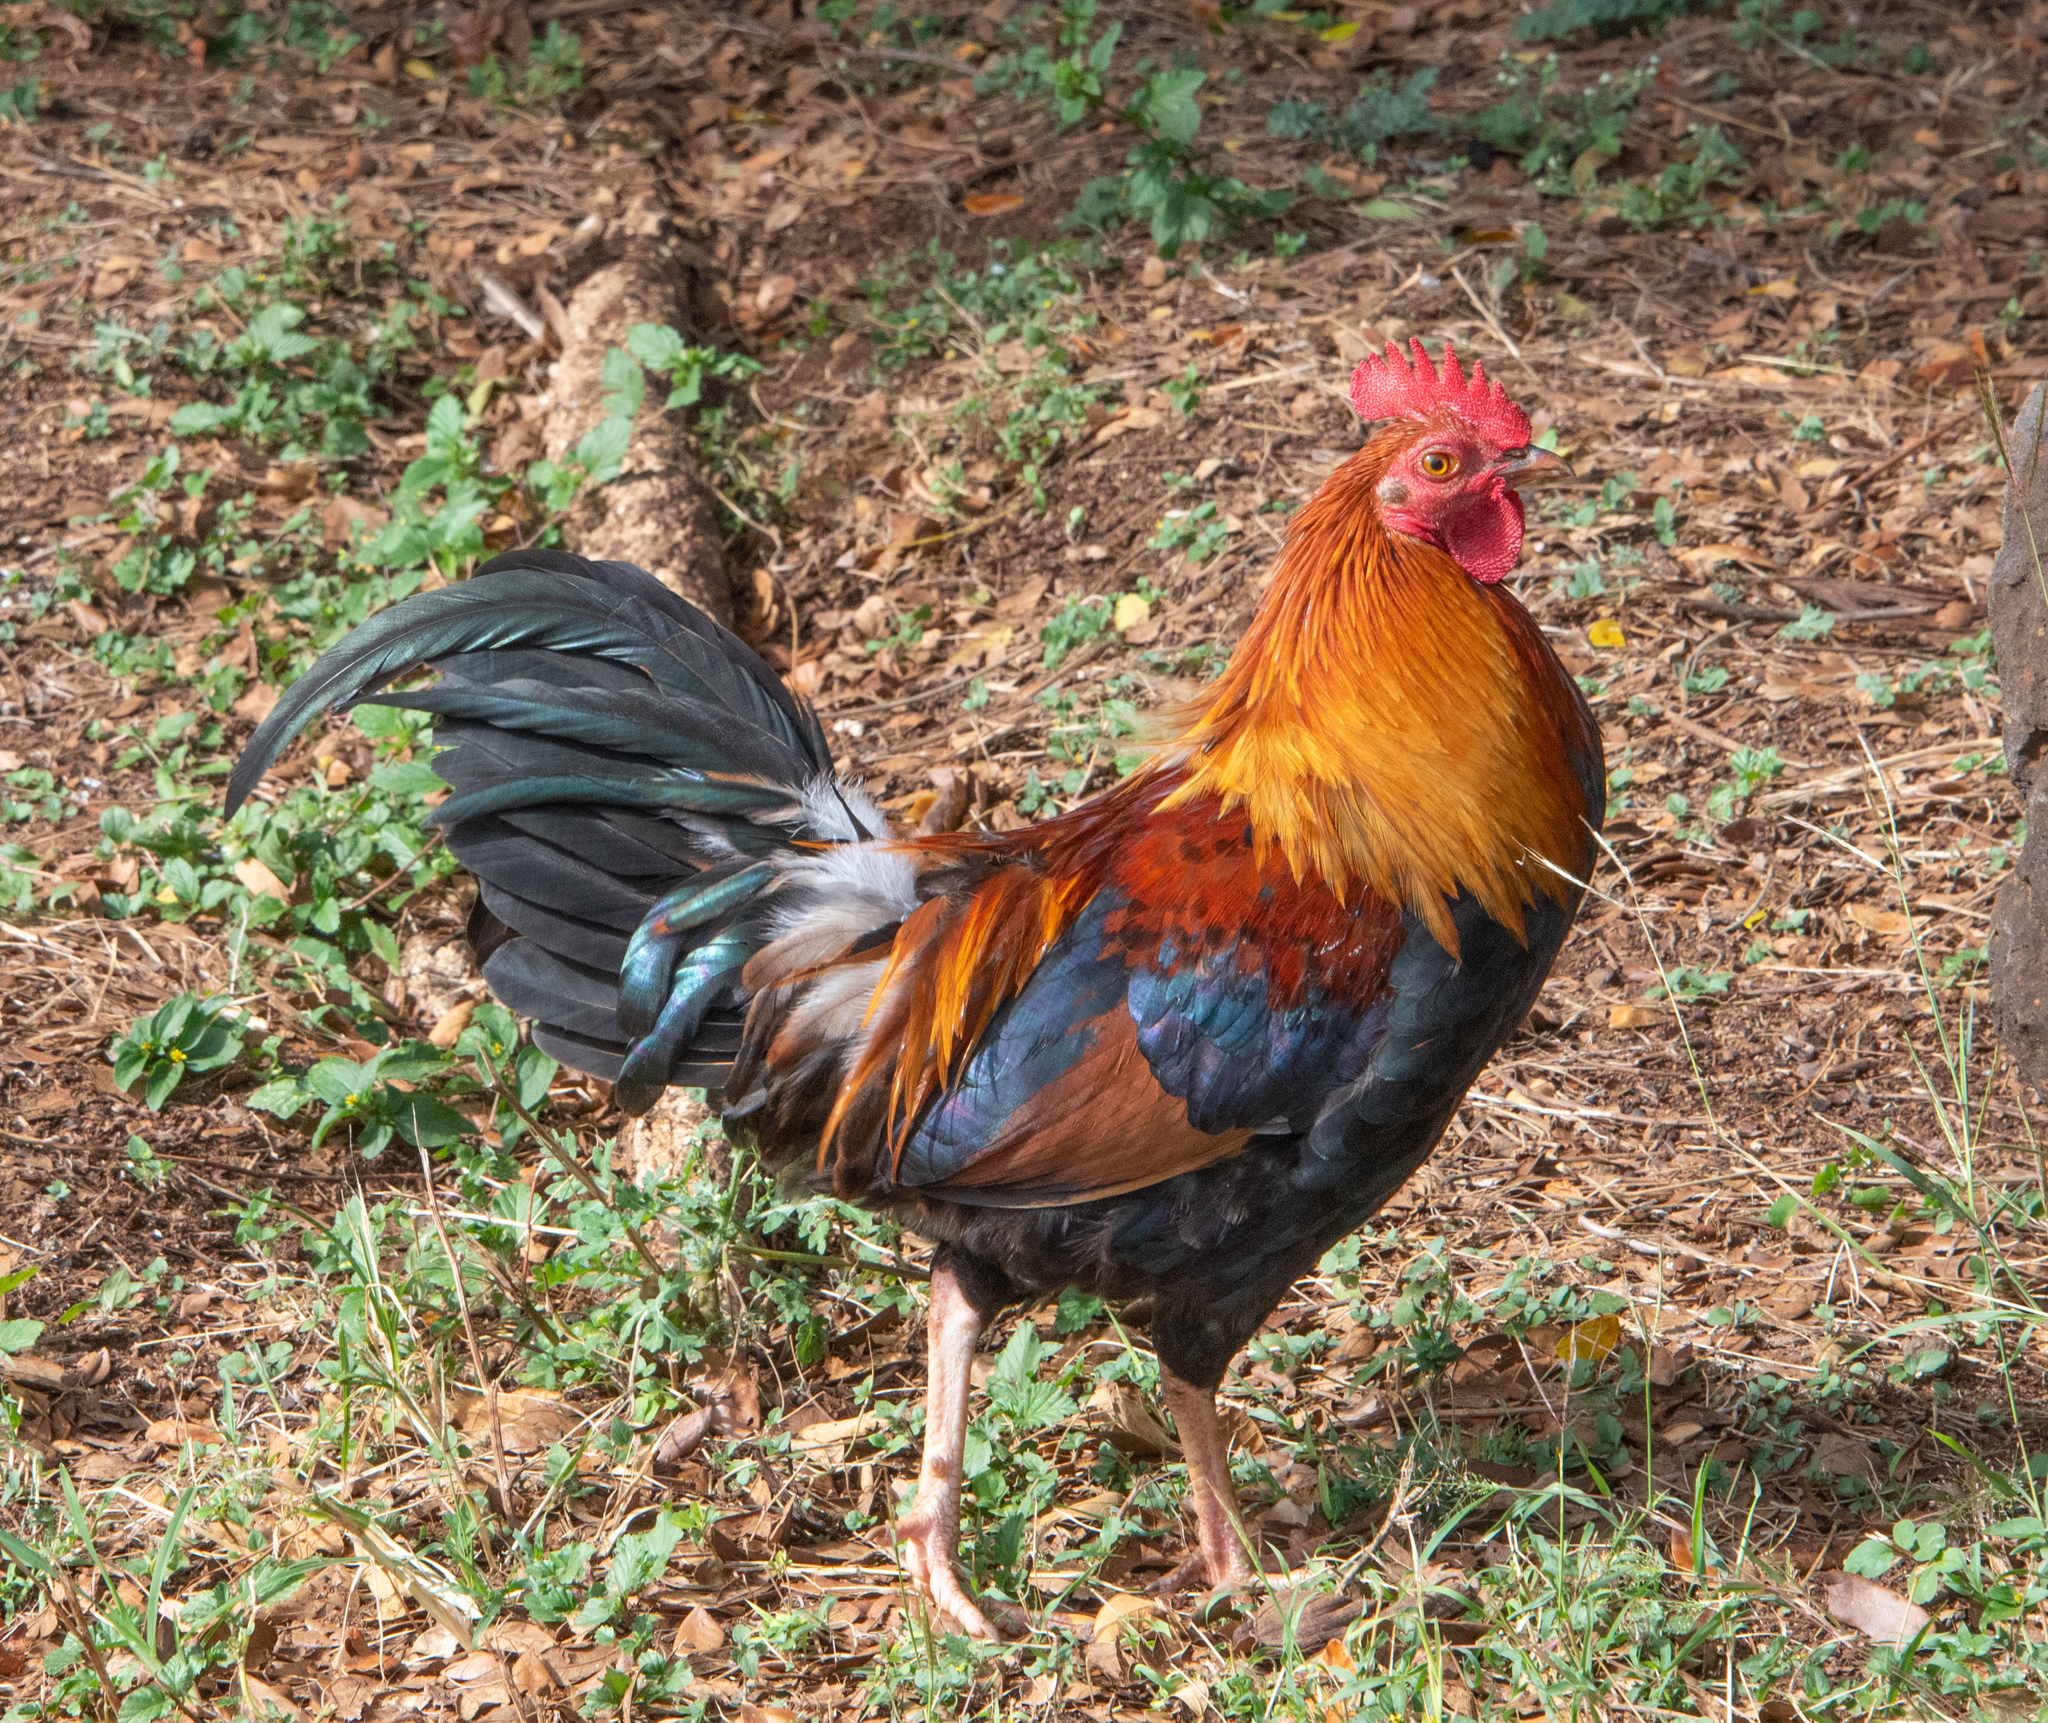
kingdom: Animalia
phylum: Chordata
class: Aves
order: Galliformes
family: Phasianidae
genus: Gallus
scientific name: Gallus gallus
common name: Red junglefowl
